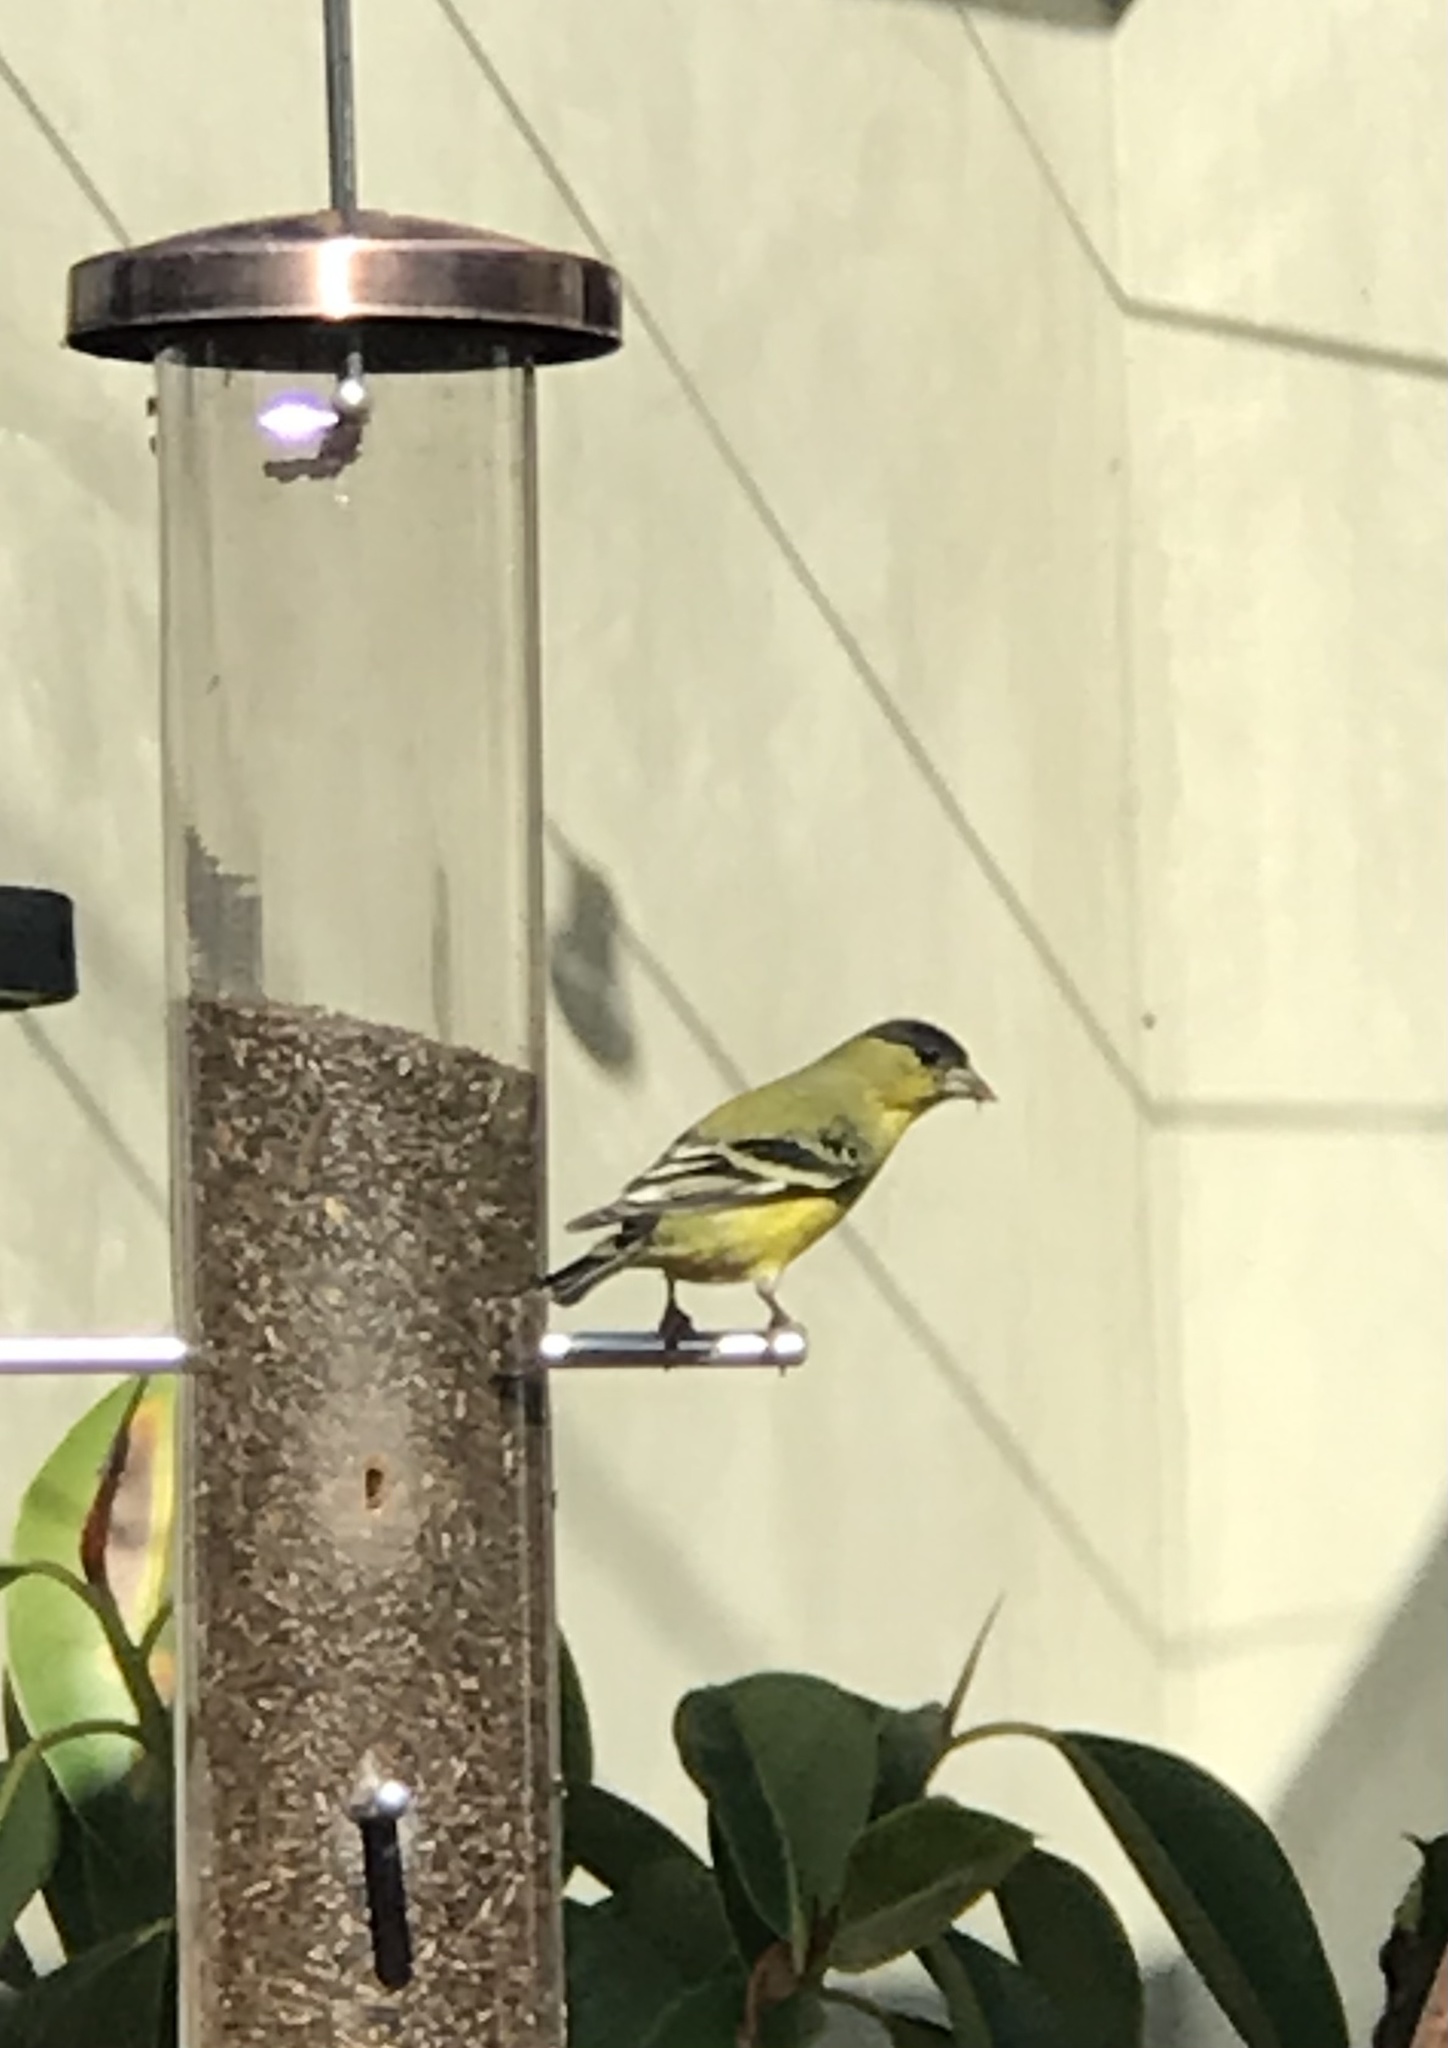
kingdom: Animalia
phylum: Chordata
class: Aves
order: Passeriformes
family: Fringillidae
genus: Spinus
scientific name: Spinus psaltria
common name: Lesser goldfinch
